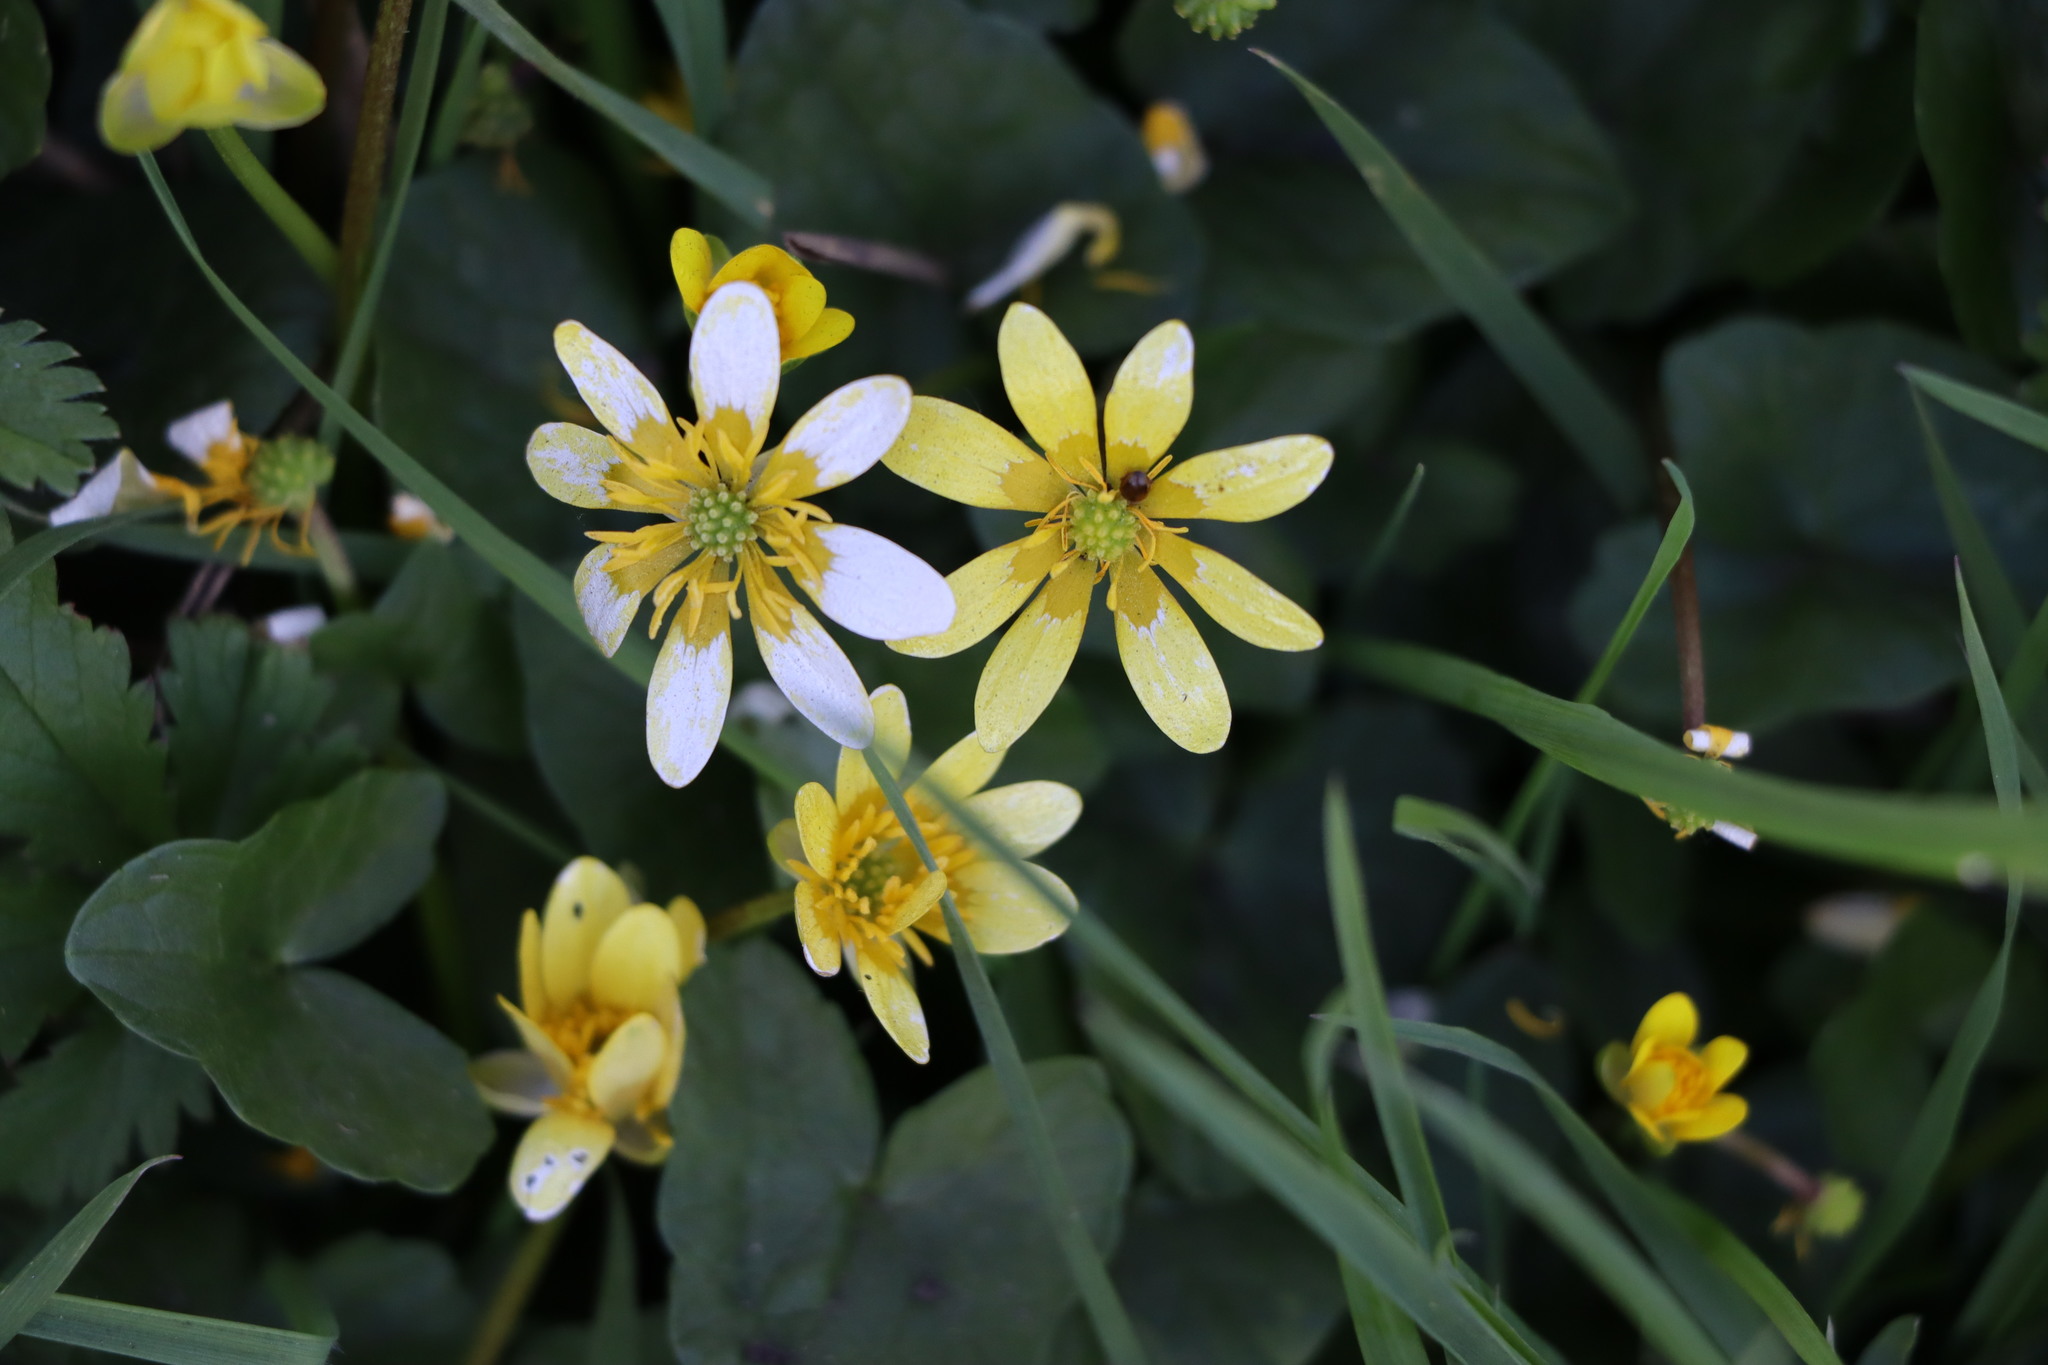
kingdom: Plantae
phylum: Tracheophyta
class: Magnoliopsida
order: Ranunculales
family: Ranunculaceae
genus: Ficaria
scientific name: Ficaria verna
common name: Lesser celandine
